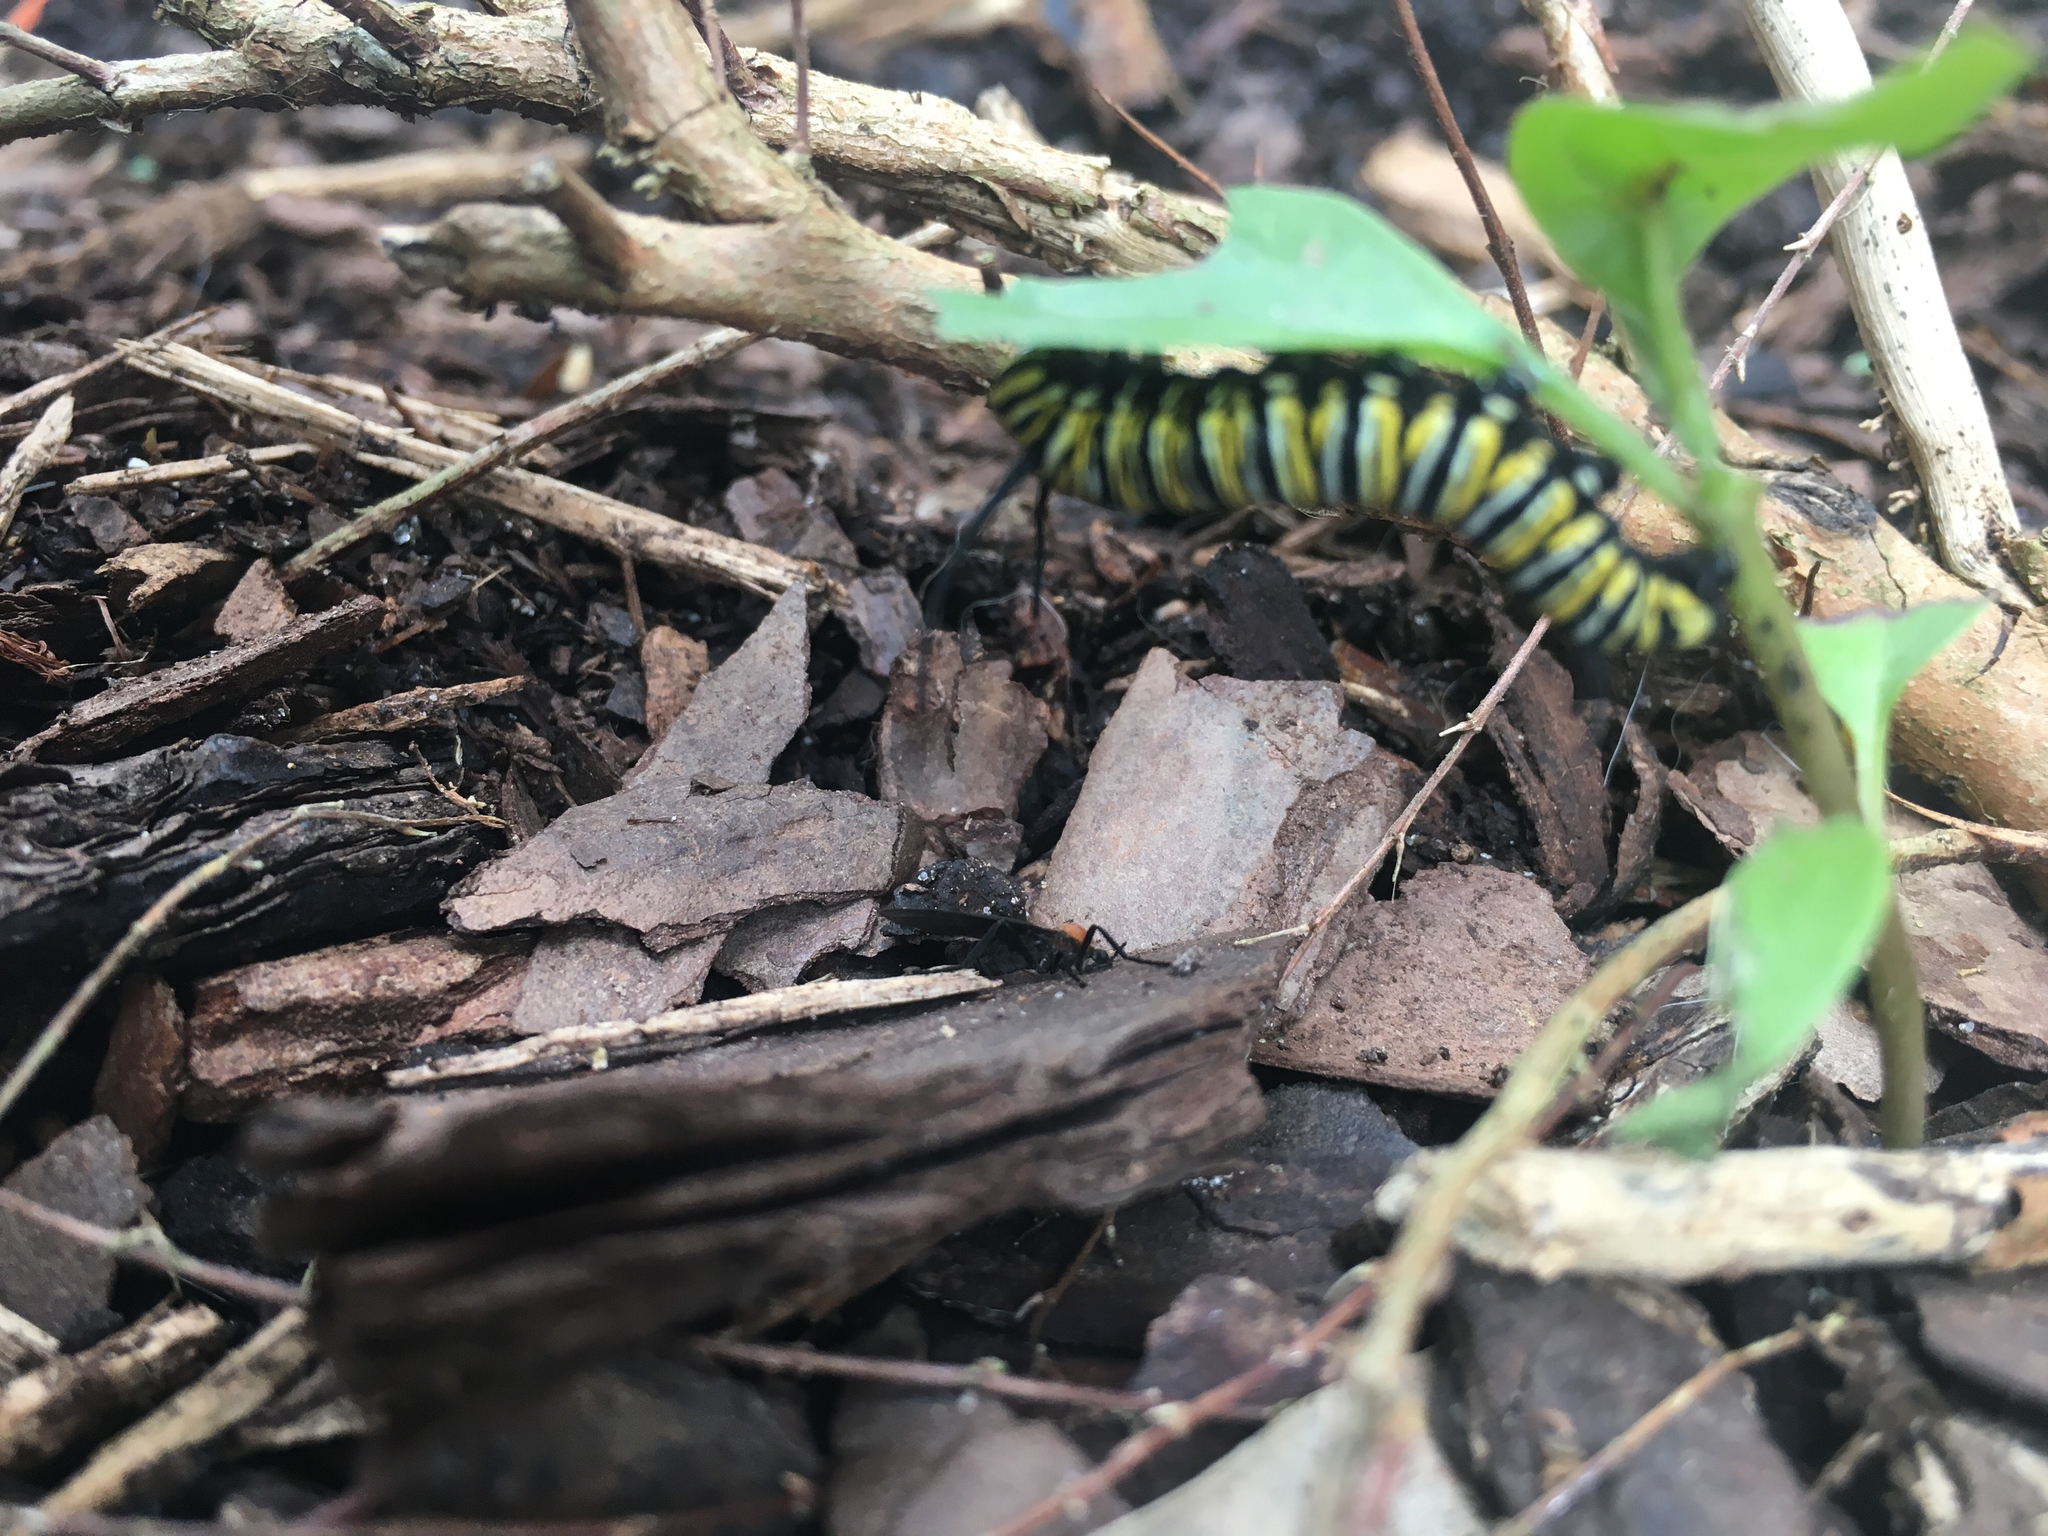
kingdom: Animalia
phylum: Arthropoda
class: Insecta
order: Lepidoptera
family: Nymphalidae
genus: Danaus
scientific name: Danaus plexippus
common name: Monarch
